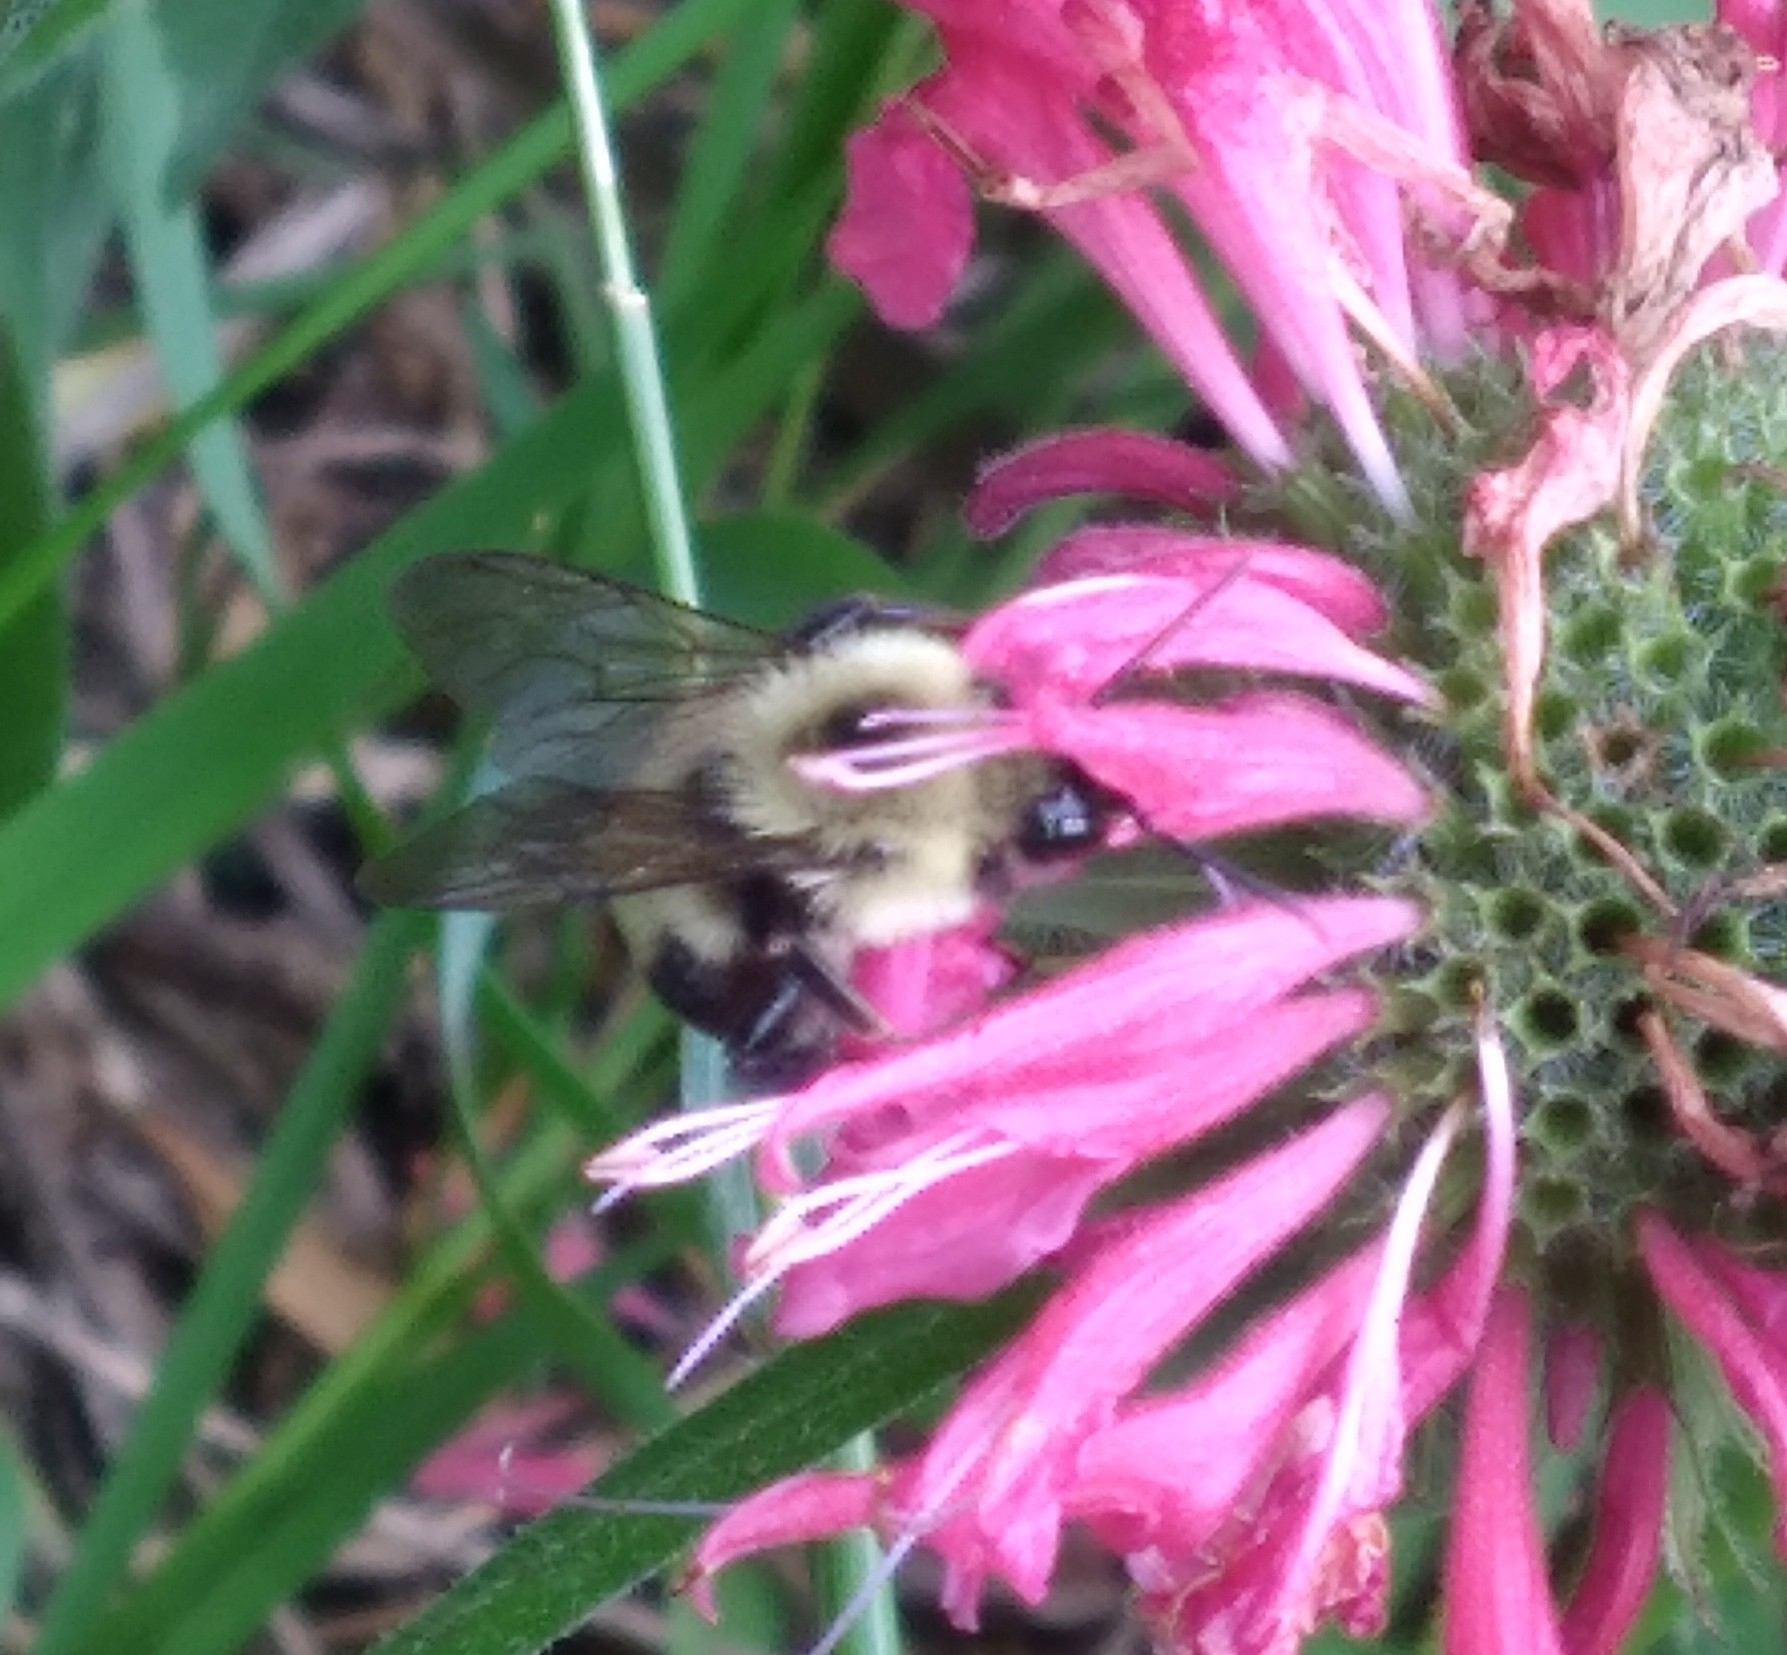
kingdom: Animalia
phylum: Arthropoda
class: Insecta
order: Hymenoptera
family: Apidae
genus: Bombus
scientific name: Bombus bimaculatus
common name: Two-spotted bumble bee
